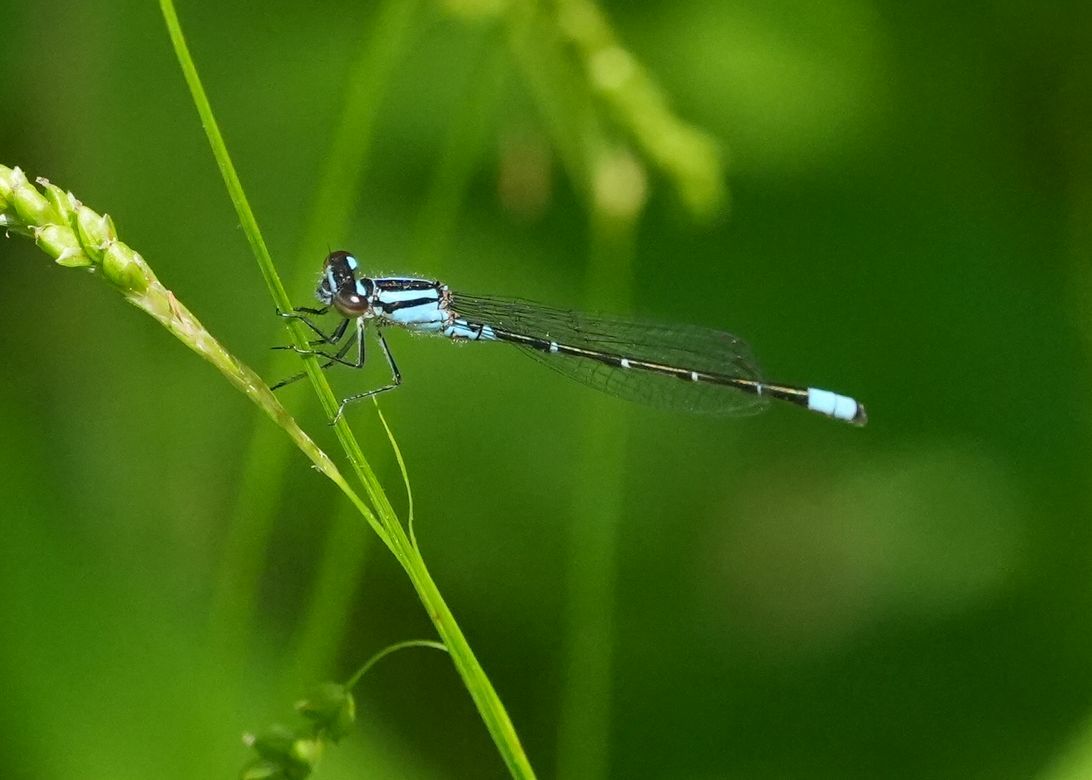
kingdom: Animalia
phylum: Arthropoda
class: Insecta
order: Odonata
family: Coenagrionidae
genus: Enallagma
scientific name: Enallagma geminatum
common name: Skimming bluet
